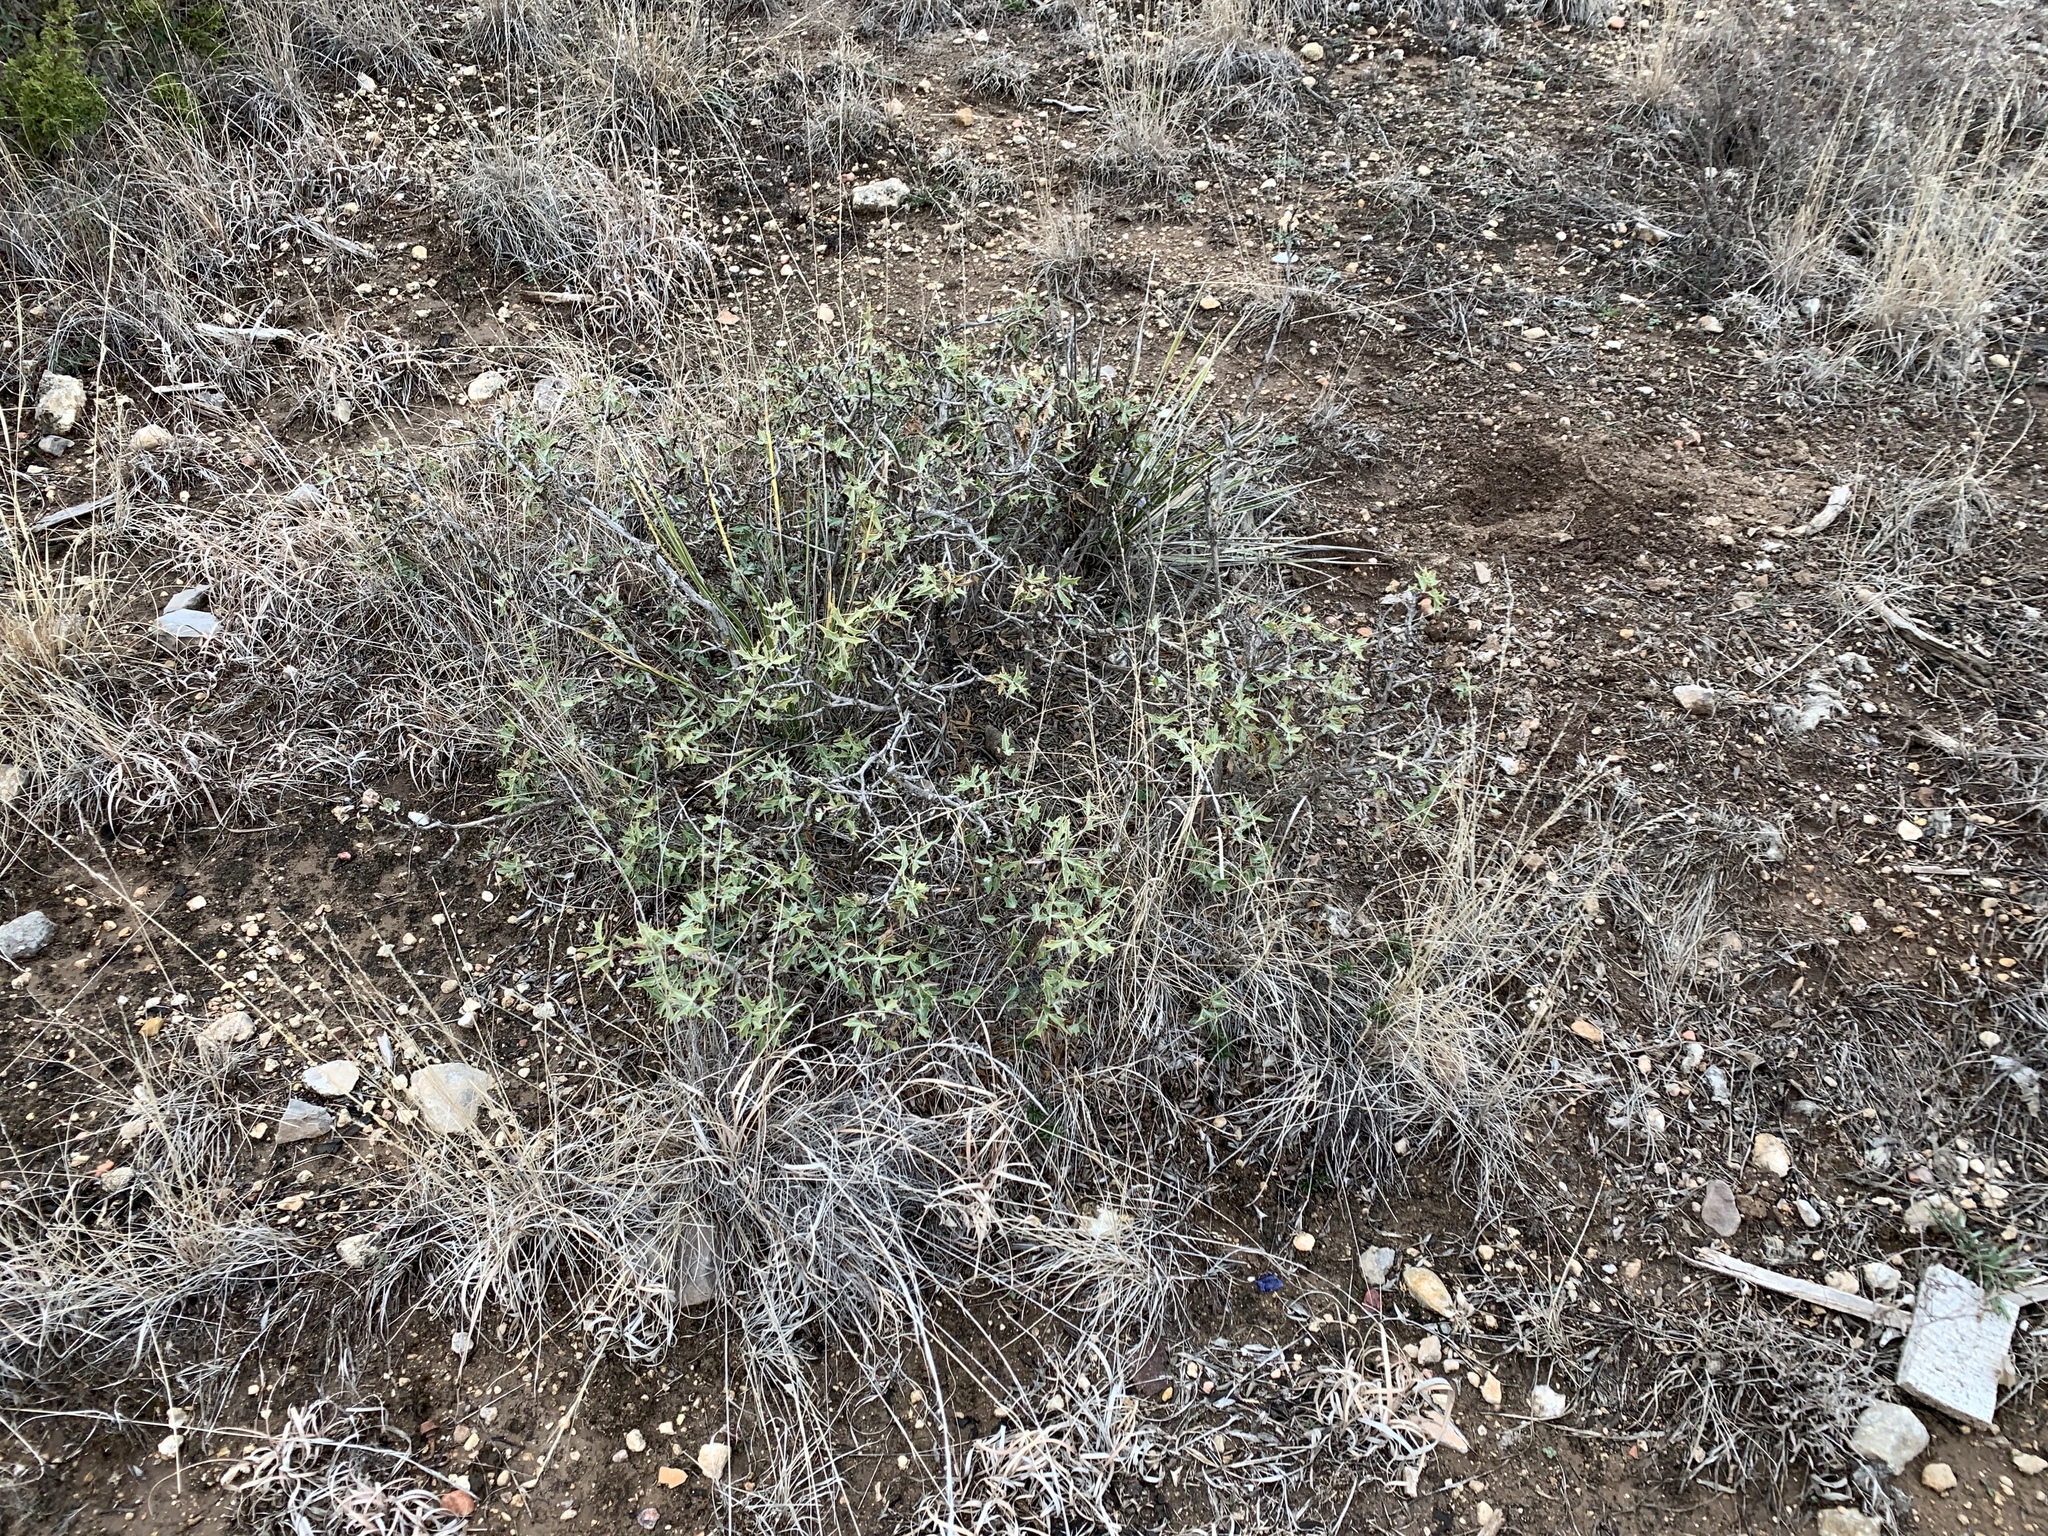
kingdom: Plantae
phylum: Tracheophyta
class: Magnoliopsida
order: Ranunculales
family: Berberidaceae
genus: Alloberberis
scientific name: Alloberberis trifoliolata
